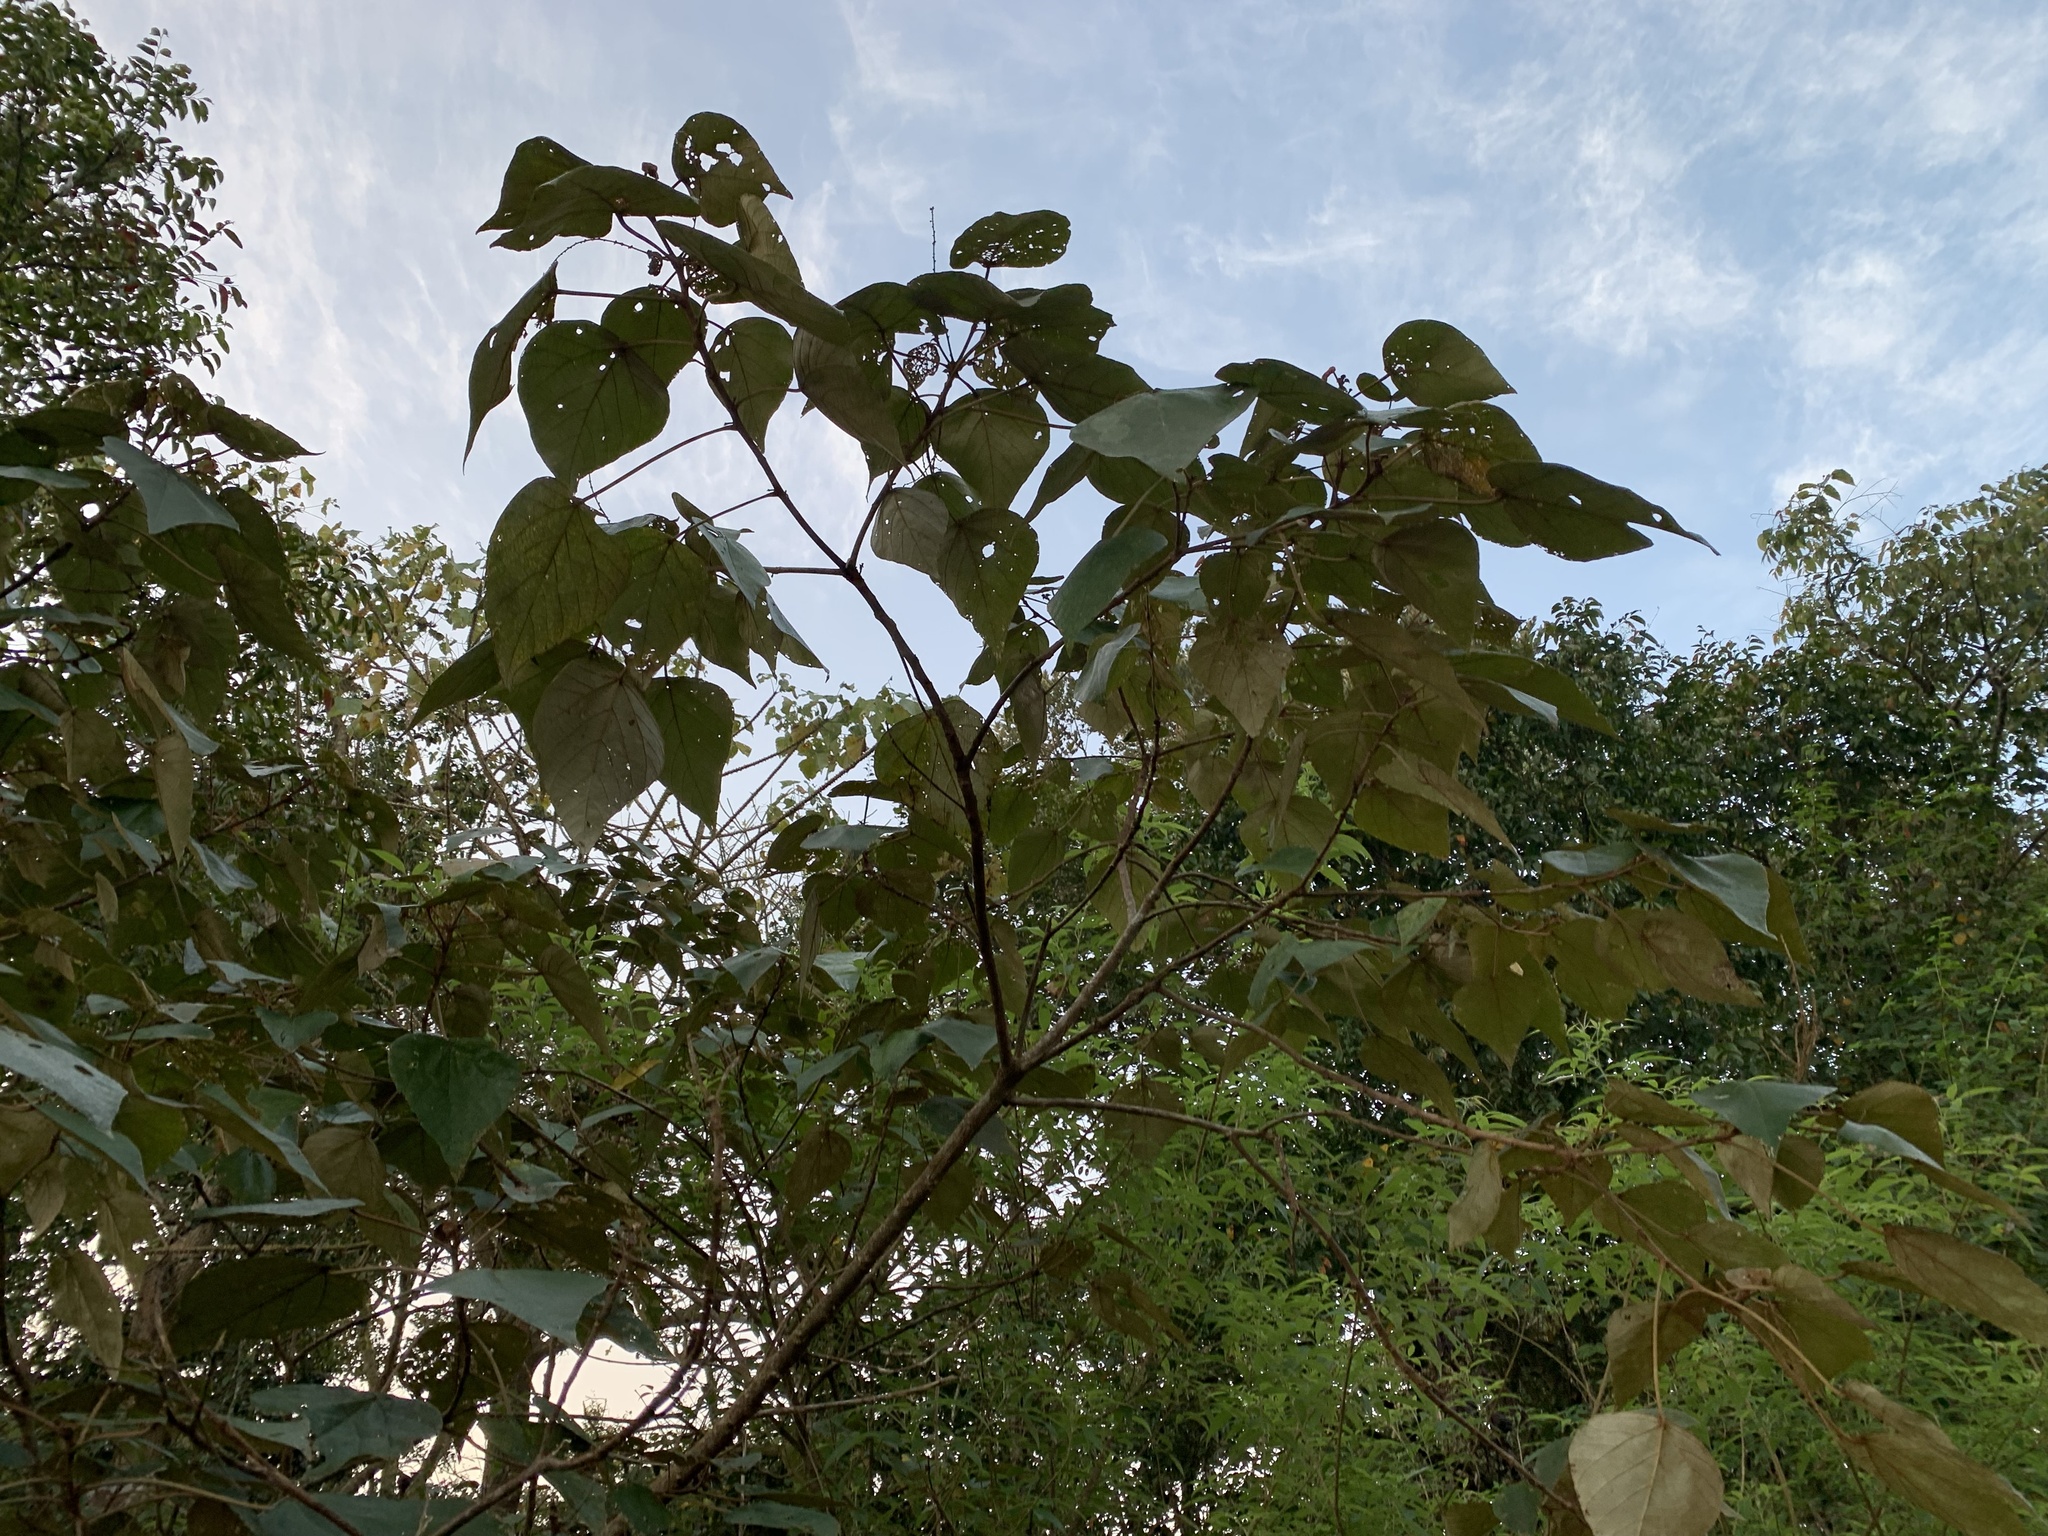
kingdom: Plantae
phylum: Tracheophyta
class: Magnoliopsida
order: Malpighiales
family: Euphorbiaceae
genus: Mallotus
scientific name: Mallotus tetracoccus
